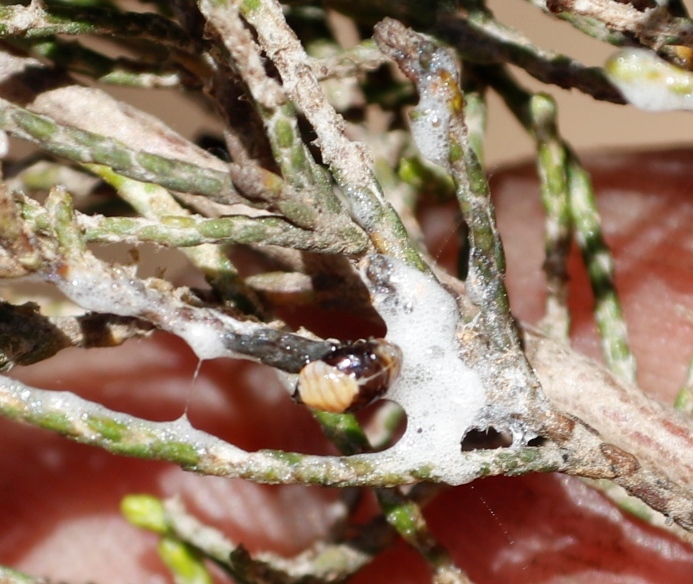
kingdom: Animalia
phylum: Arthropoda
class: Insecta
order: Hemiptera
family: Aphrophoridae
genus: Tremapterus
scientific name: Tremapterus
